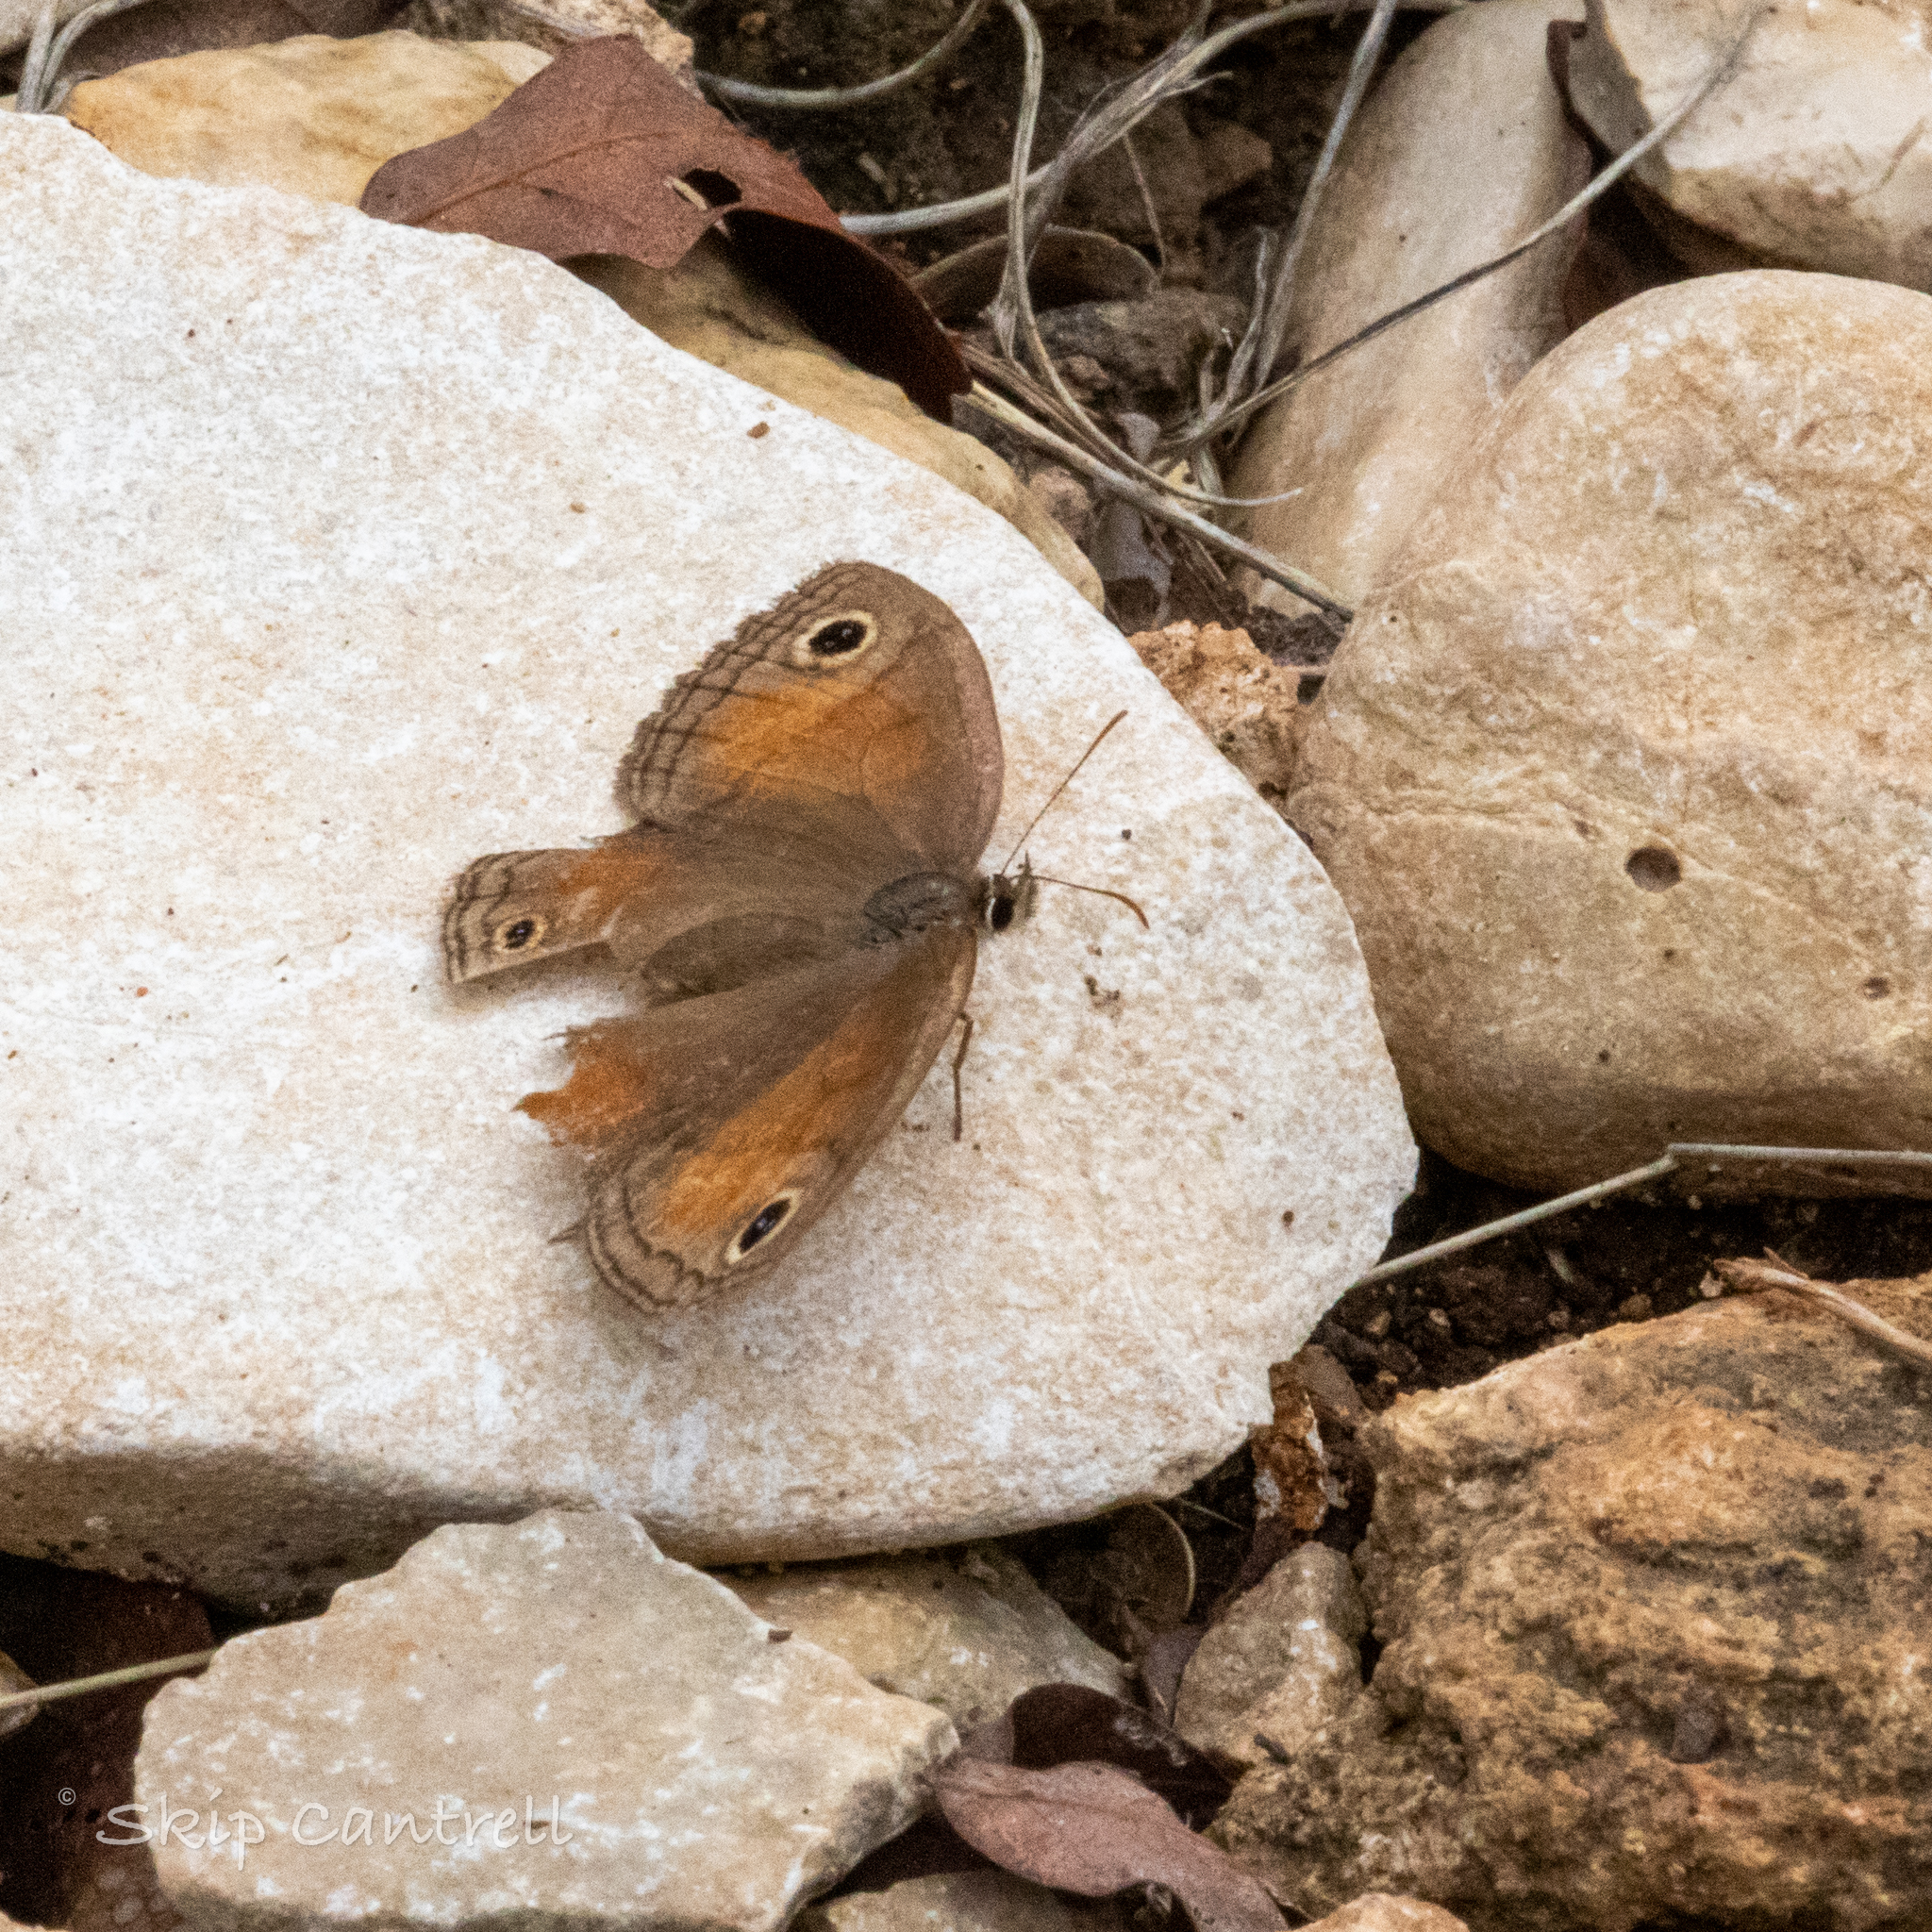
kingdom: Animalia
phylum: Arthropoda
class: Insecta
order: Lepidoptera
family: Nymphalidae
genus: Euptychia
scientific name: Euptychia Cissia rubricata
